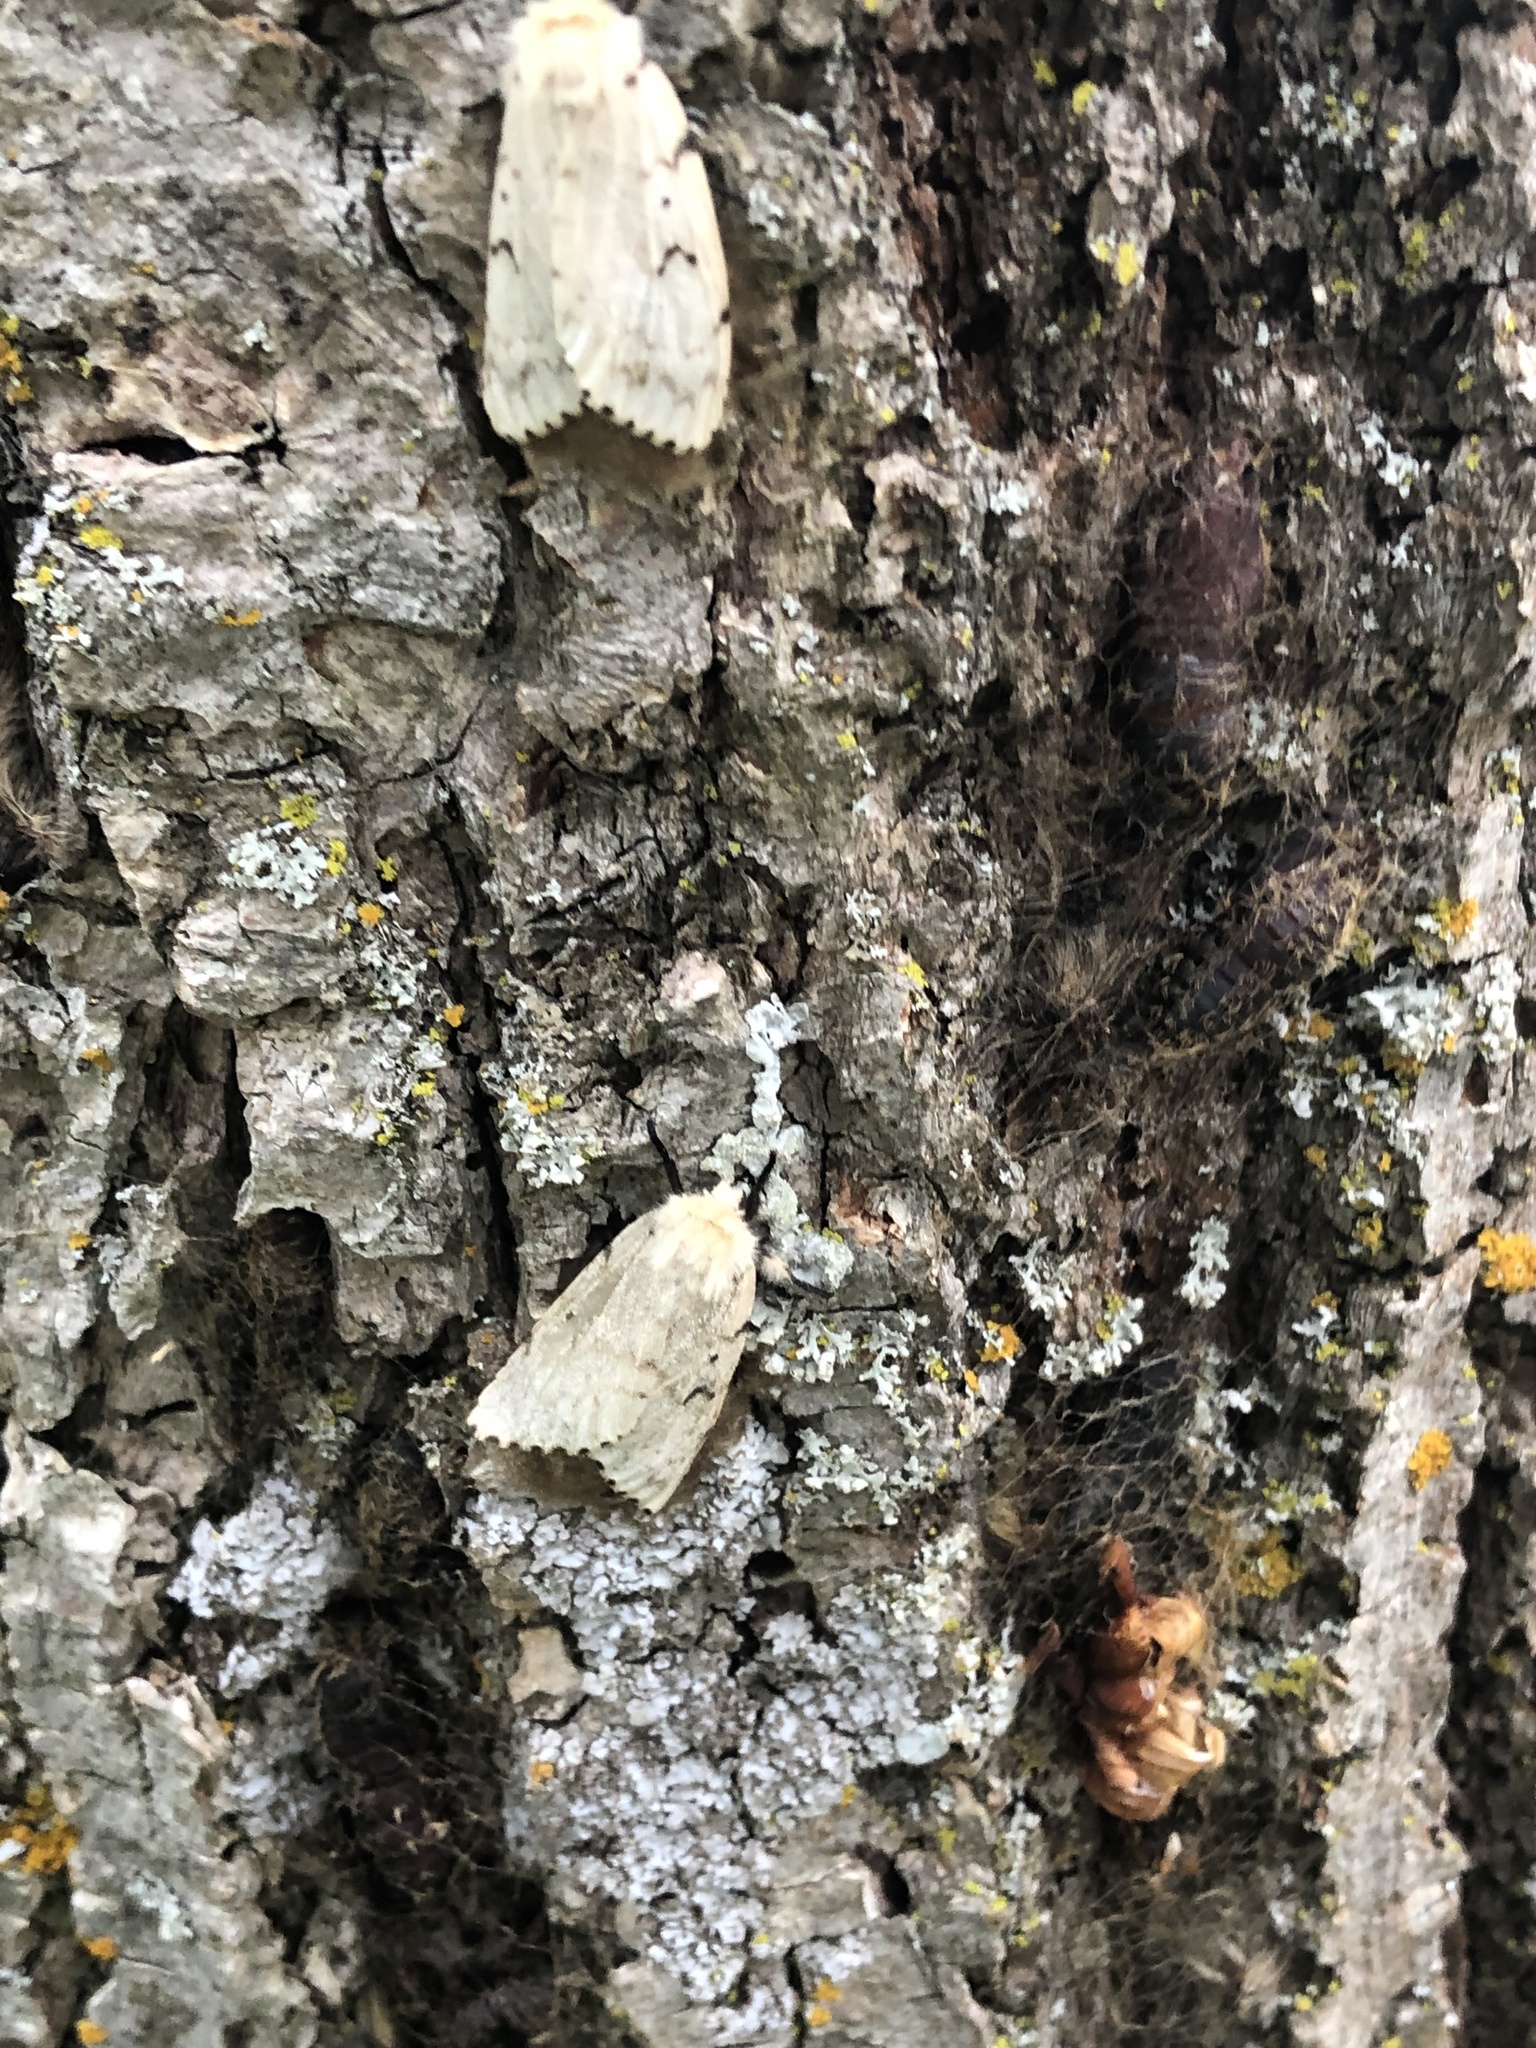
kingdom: Animalia
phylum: Arthropoda
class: Insecta
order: Lepidoptera
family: Erebidae
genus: Lymantria
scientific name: Lymantria dispar
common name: Gypsy moth
